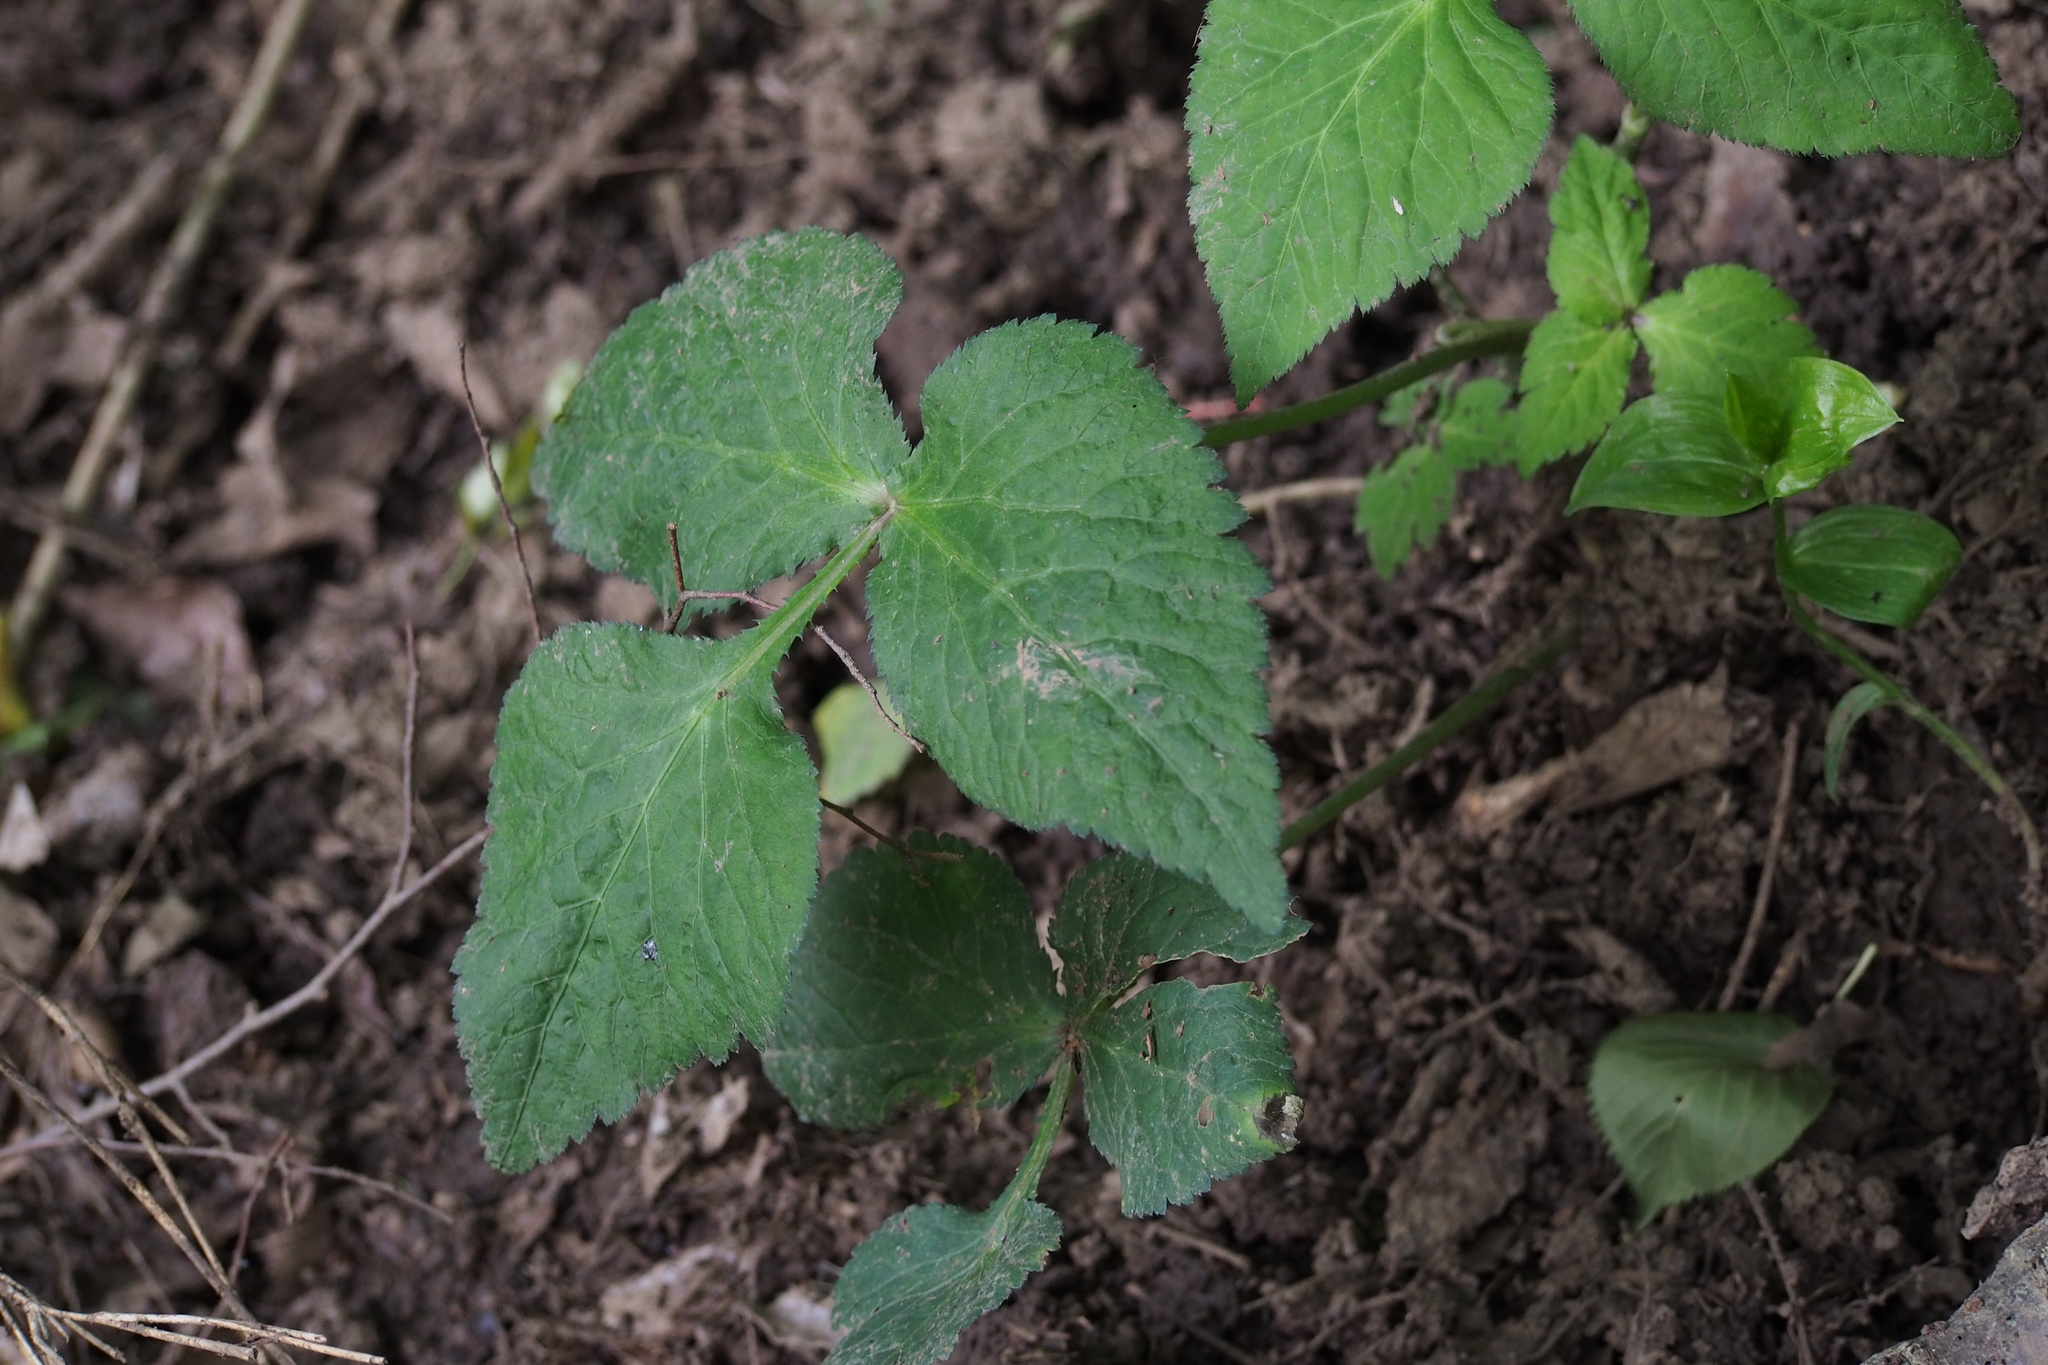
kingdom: Plantae
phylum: Tracheophyta
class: Magnoliopsida
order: Apiales
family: Apiaceae
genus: Cryptotaenia
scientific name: Cryptotaenia japonica
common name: Japanese cryptotaenia
